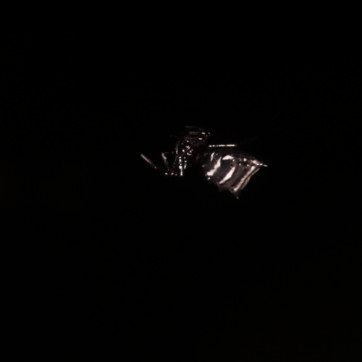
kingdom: Animalia
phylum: Arthropoda
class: Arachnida
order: Araneae
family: Araneidae
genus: Micrathena
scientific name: Micrathena cyanospina
